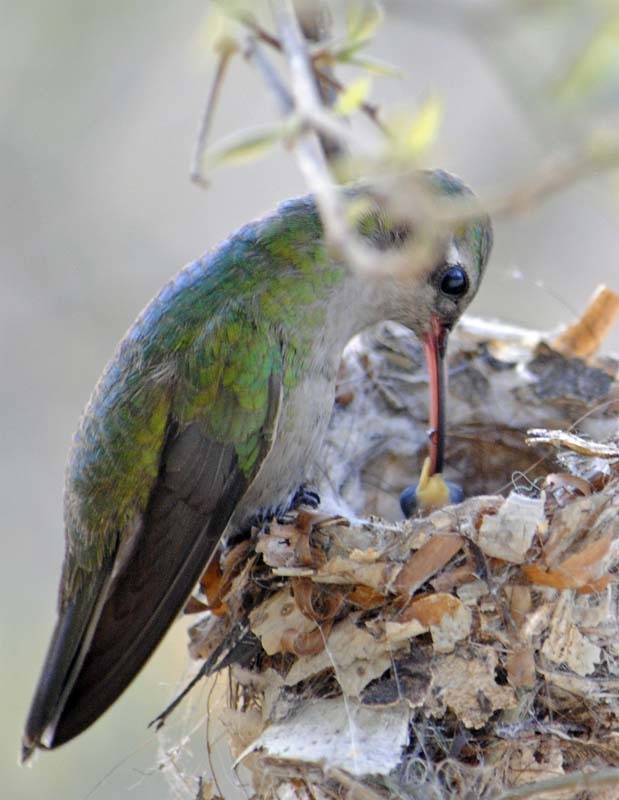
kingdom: Animalia
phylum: Chordata
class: Aves
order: Apodiformes
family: Trochilidae
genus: Cynanthus
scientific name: Cynanthus latirostris
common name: Broad-billed hummingbird
